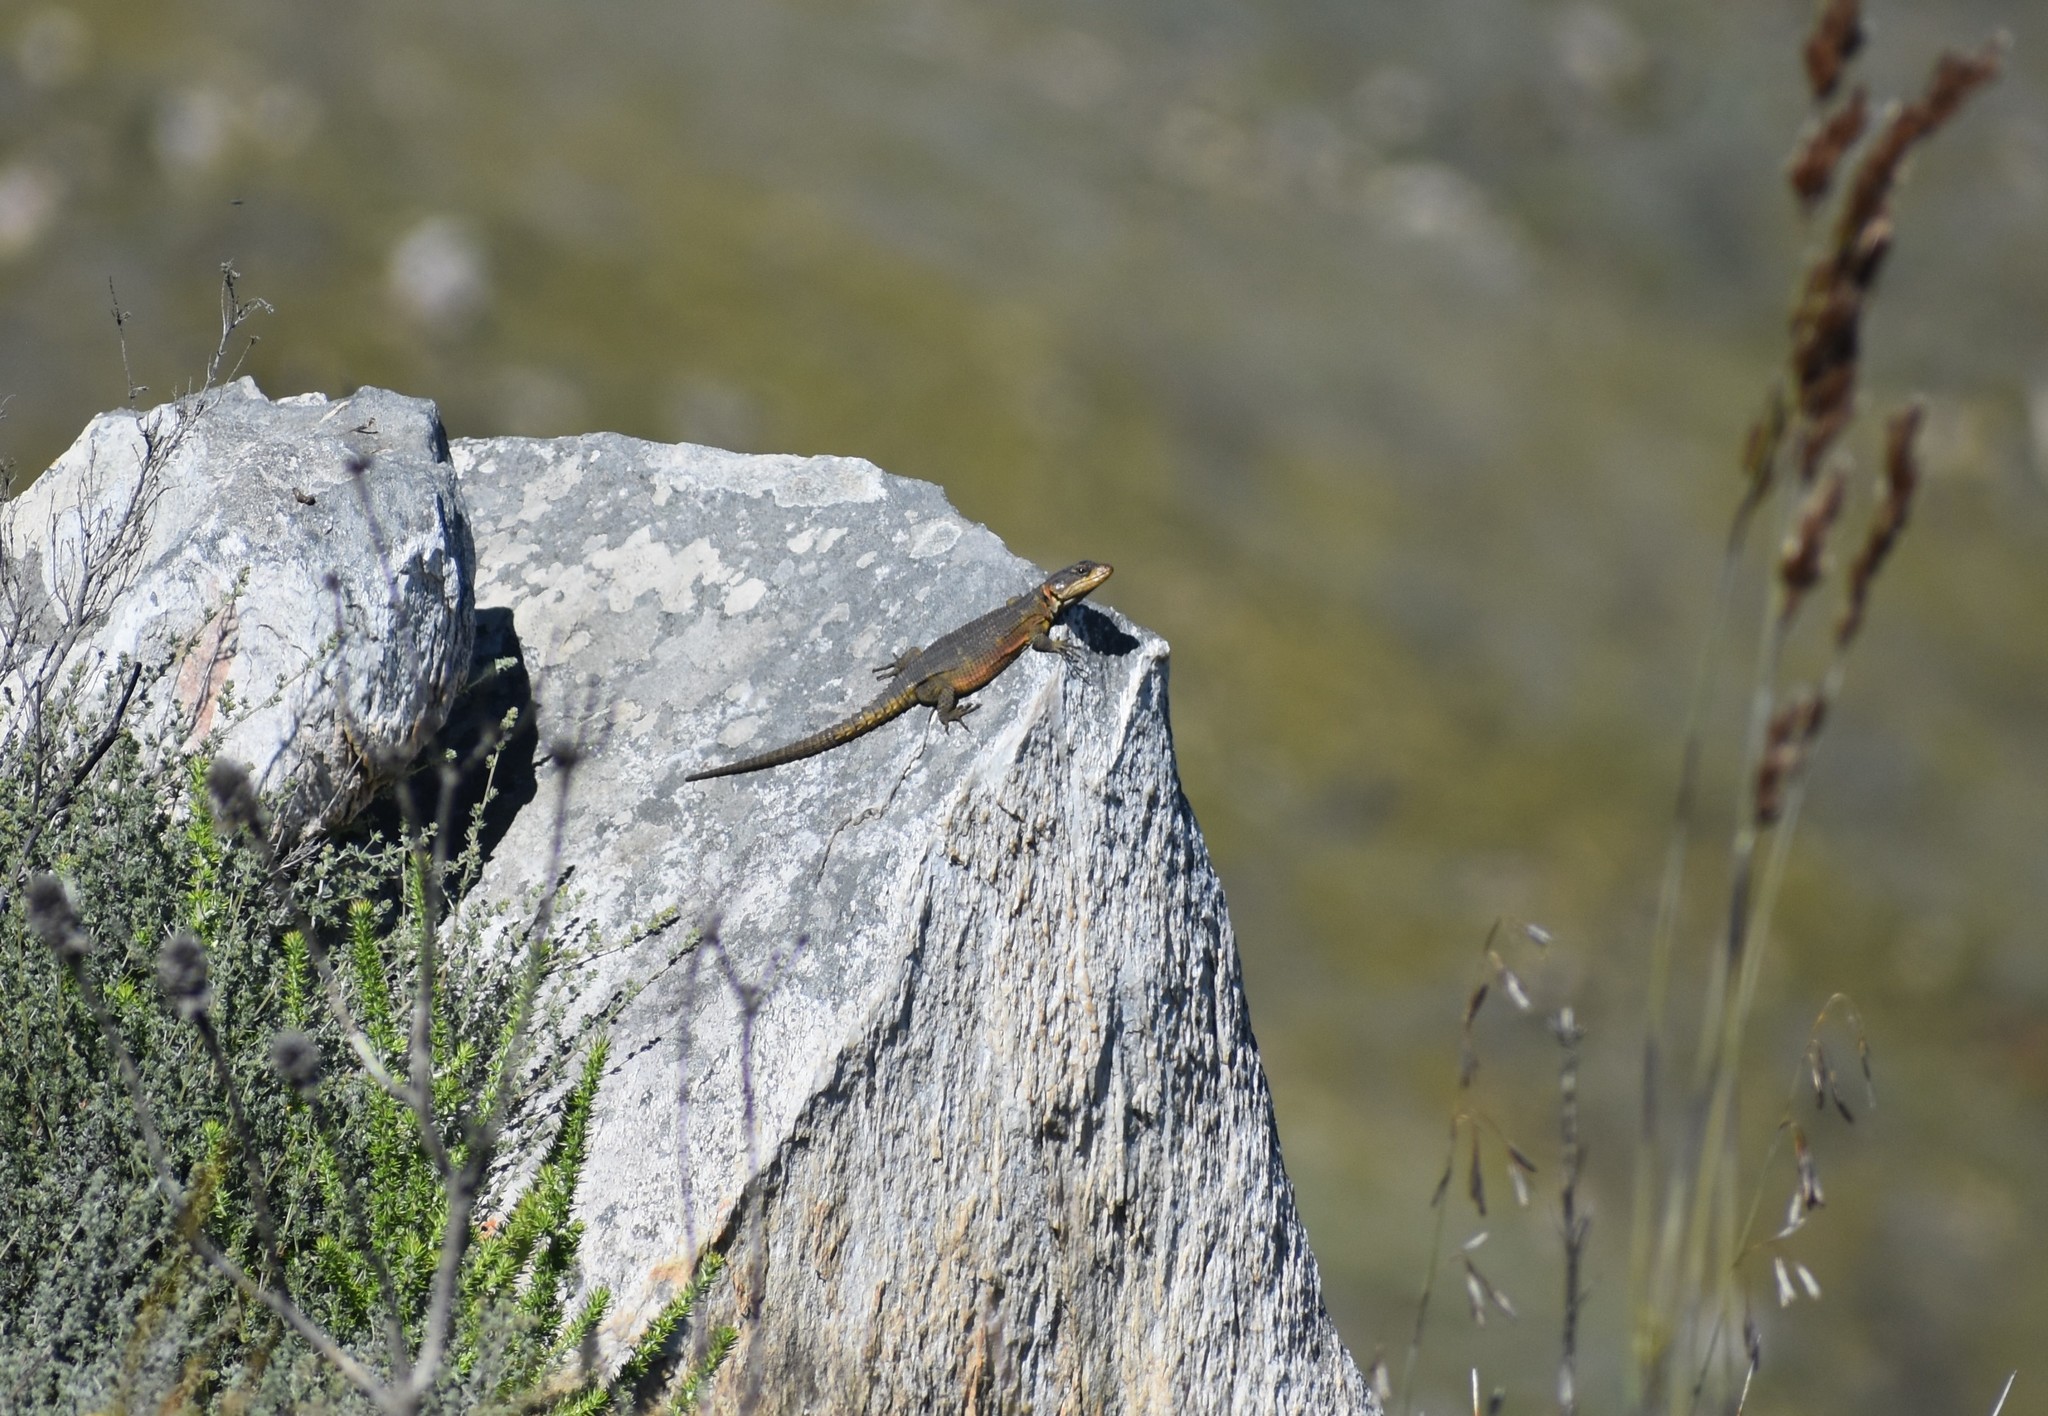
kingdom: Animalia
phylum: Chordata
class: Squamata
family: Cordylidae
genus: Pseudocordylus
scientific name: Pseudocordylus microlepidotus
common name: Cape crag lizard
